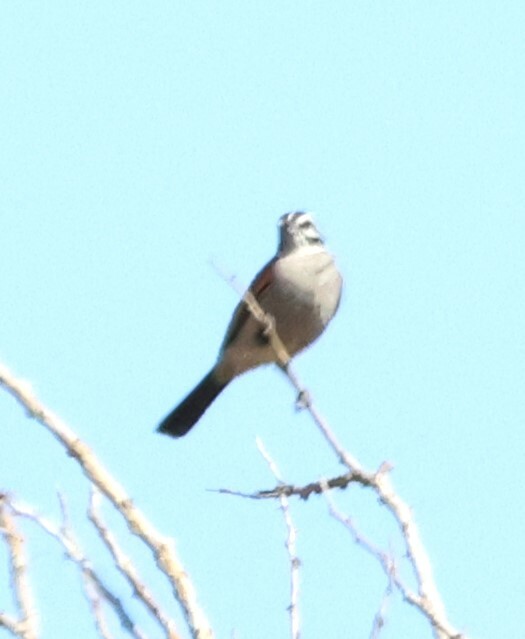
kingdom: Animalia
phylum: Chordata
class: Aves
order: Passeriformes
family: Emberizidae
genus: Emberiza
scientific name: Emberiza capensis
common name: Cape bunting
